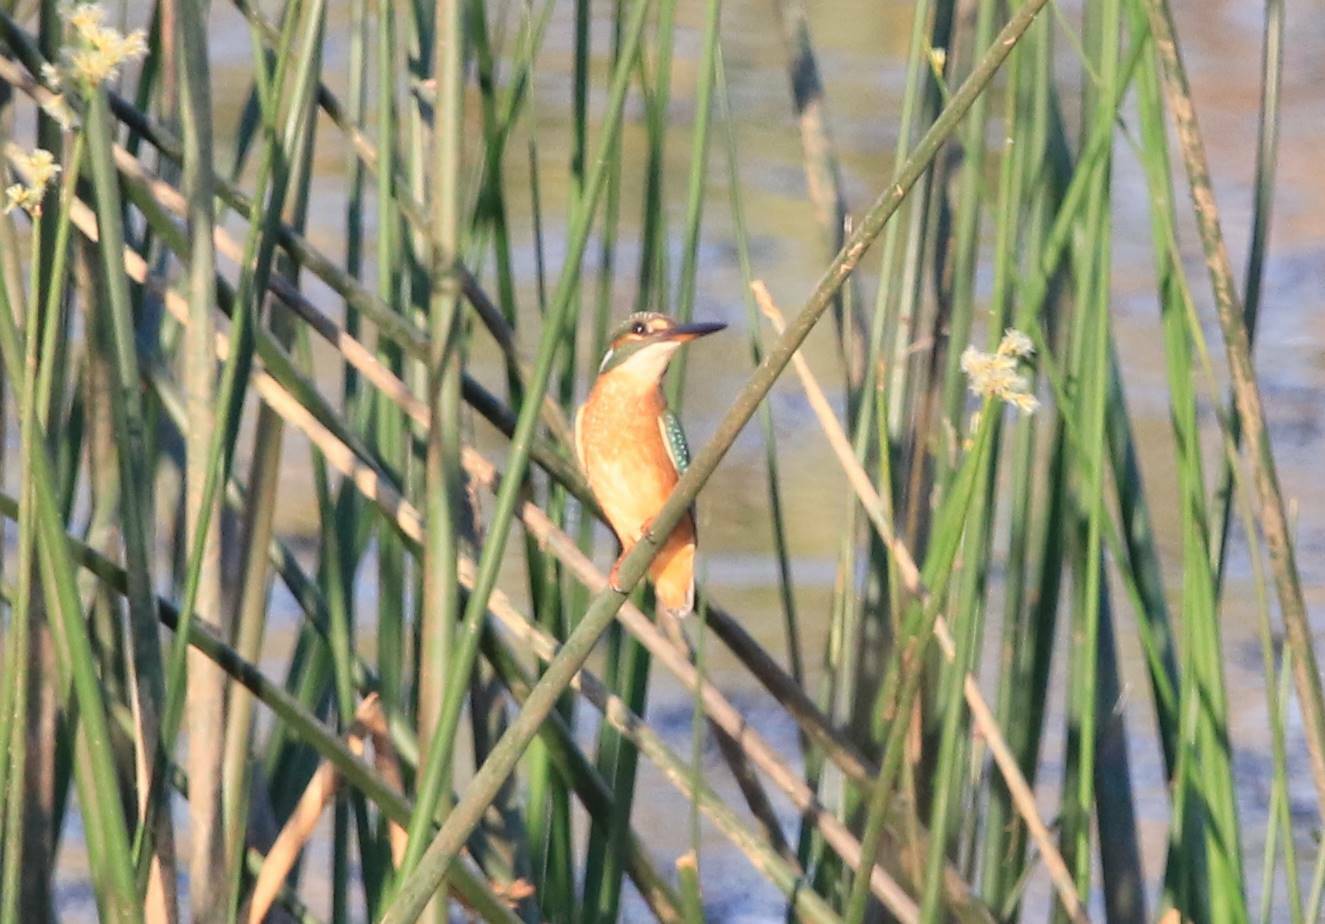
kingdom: Animalia
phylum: Chordata
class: Aves
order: Coraciiformes
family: Alcedinidae
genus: Alcedo
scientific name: Alcedo atthis
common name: Common kingfisher
